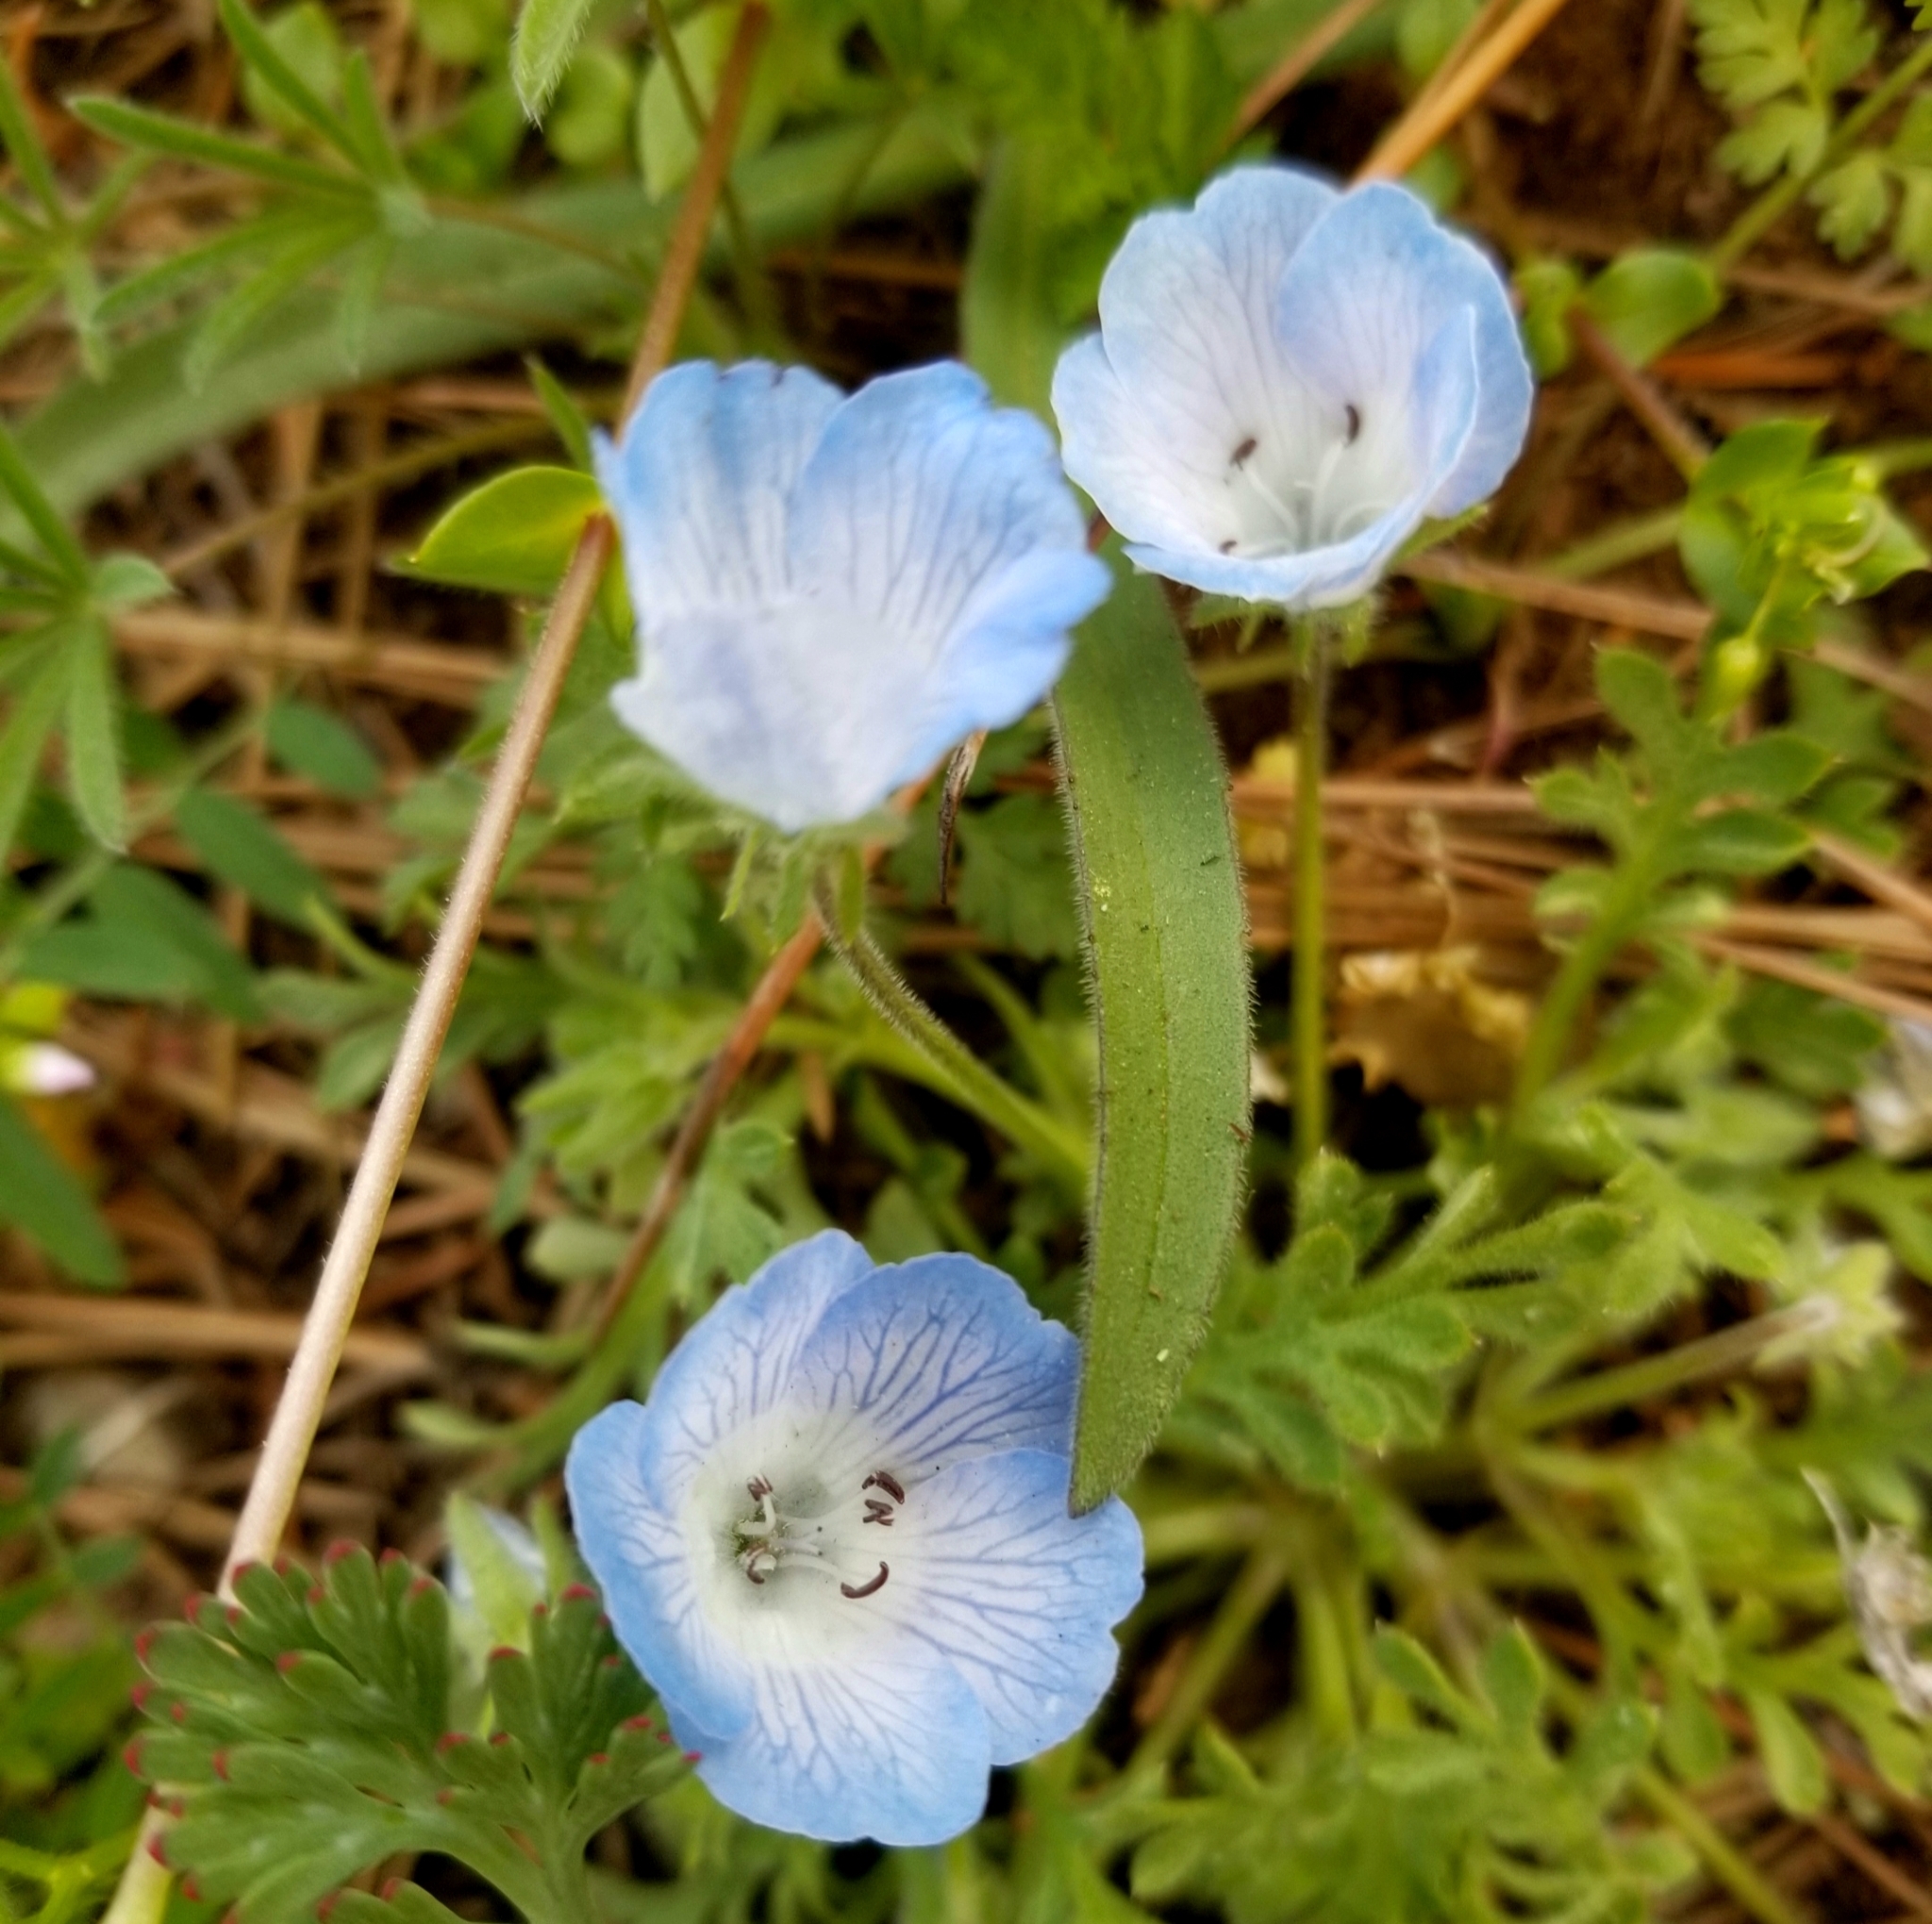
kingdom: Plantae
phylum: Tracheophyta
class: Magnoliopsida
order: Boraginales
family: Hydrophyllaceae
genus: Nemophila
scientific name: Nemophila menziesii
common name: Baby's-blue-eyes
